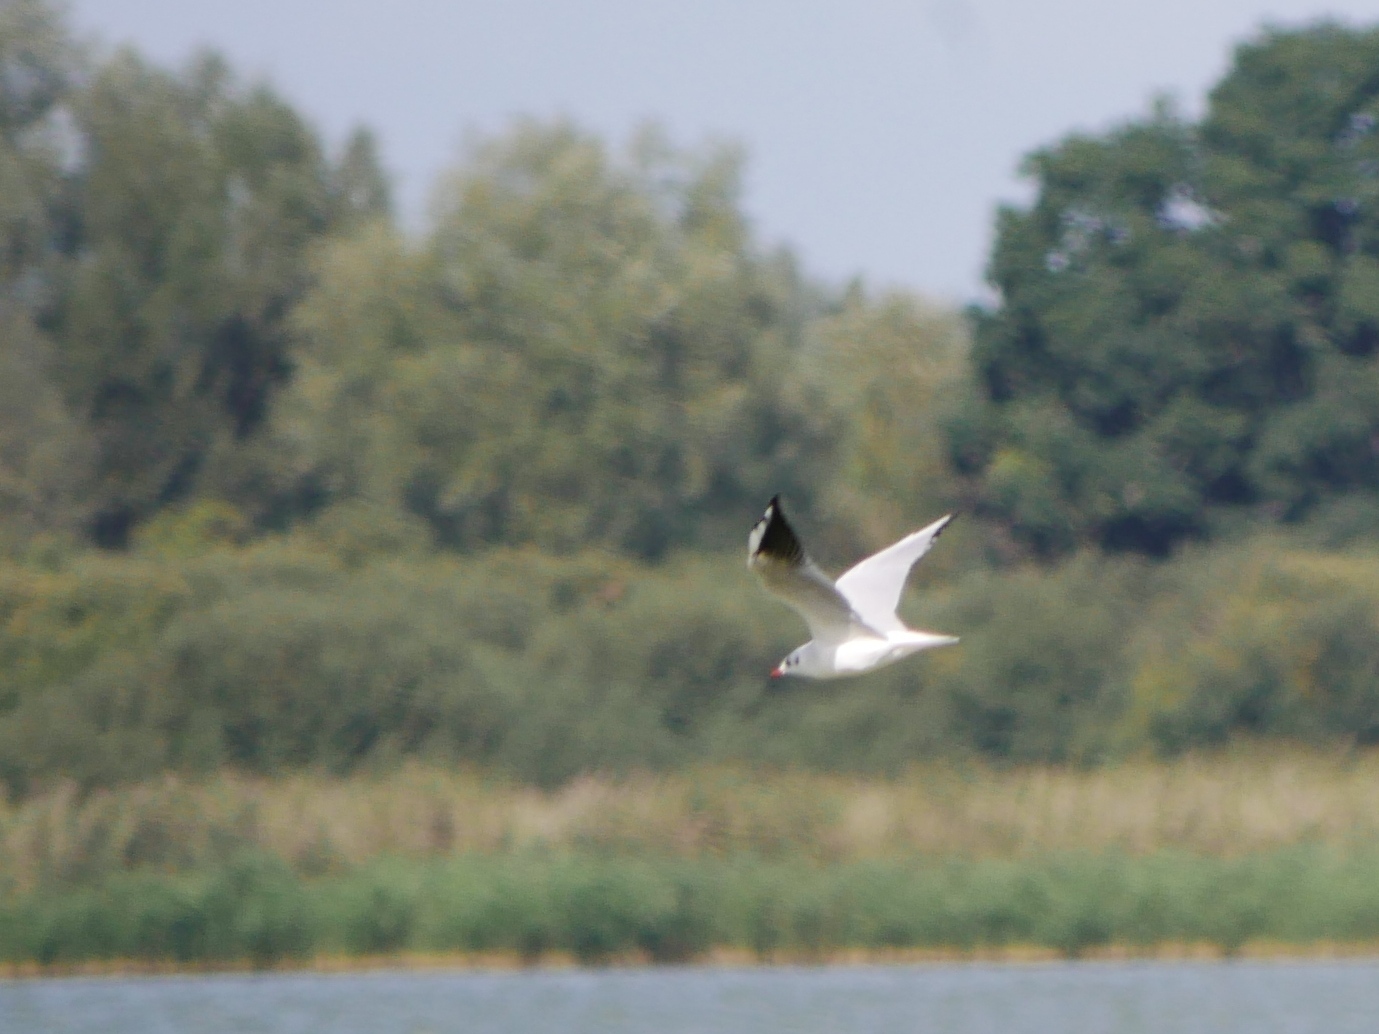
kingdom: Animalia
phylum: Chordata
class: Aves
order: Charadriiformes
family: Laridae
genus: Chroicocephalus
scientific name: Chroicocephalus ridibundus
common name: Black-headed gull
